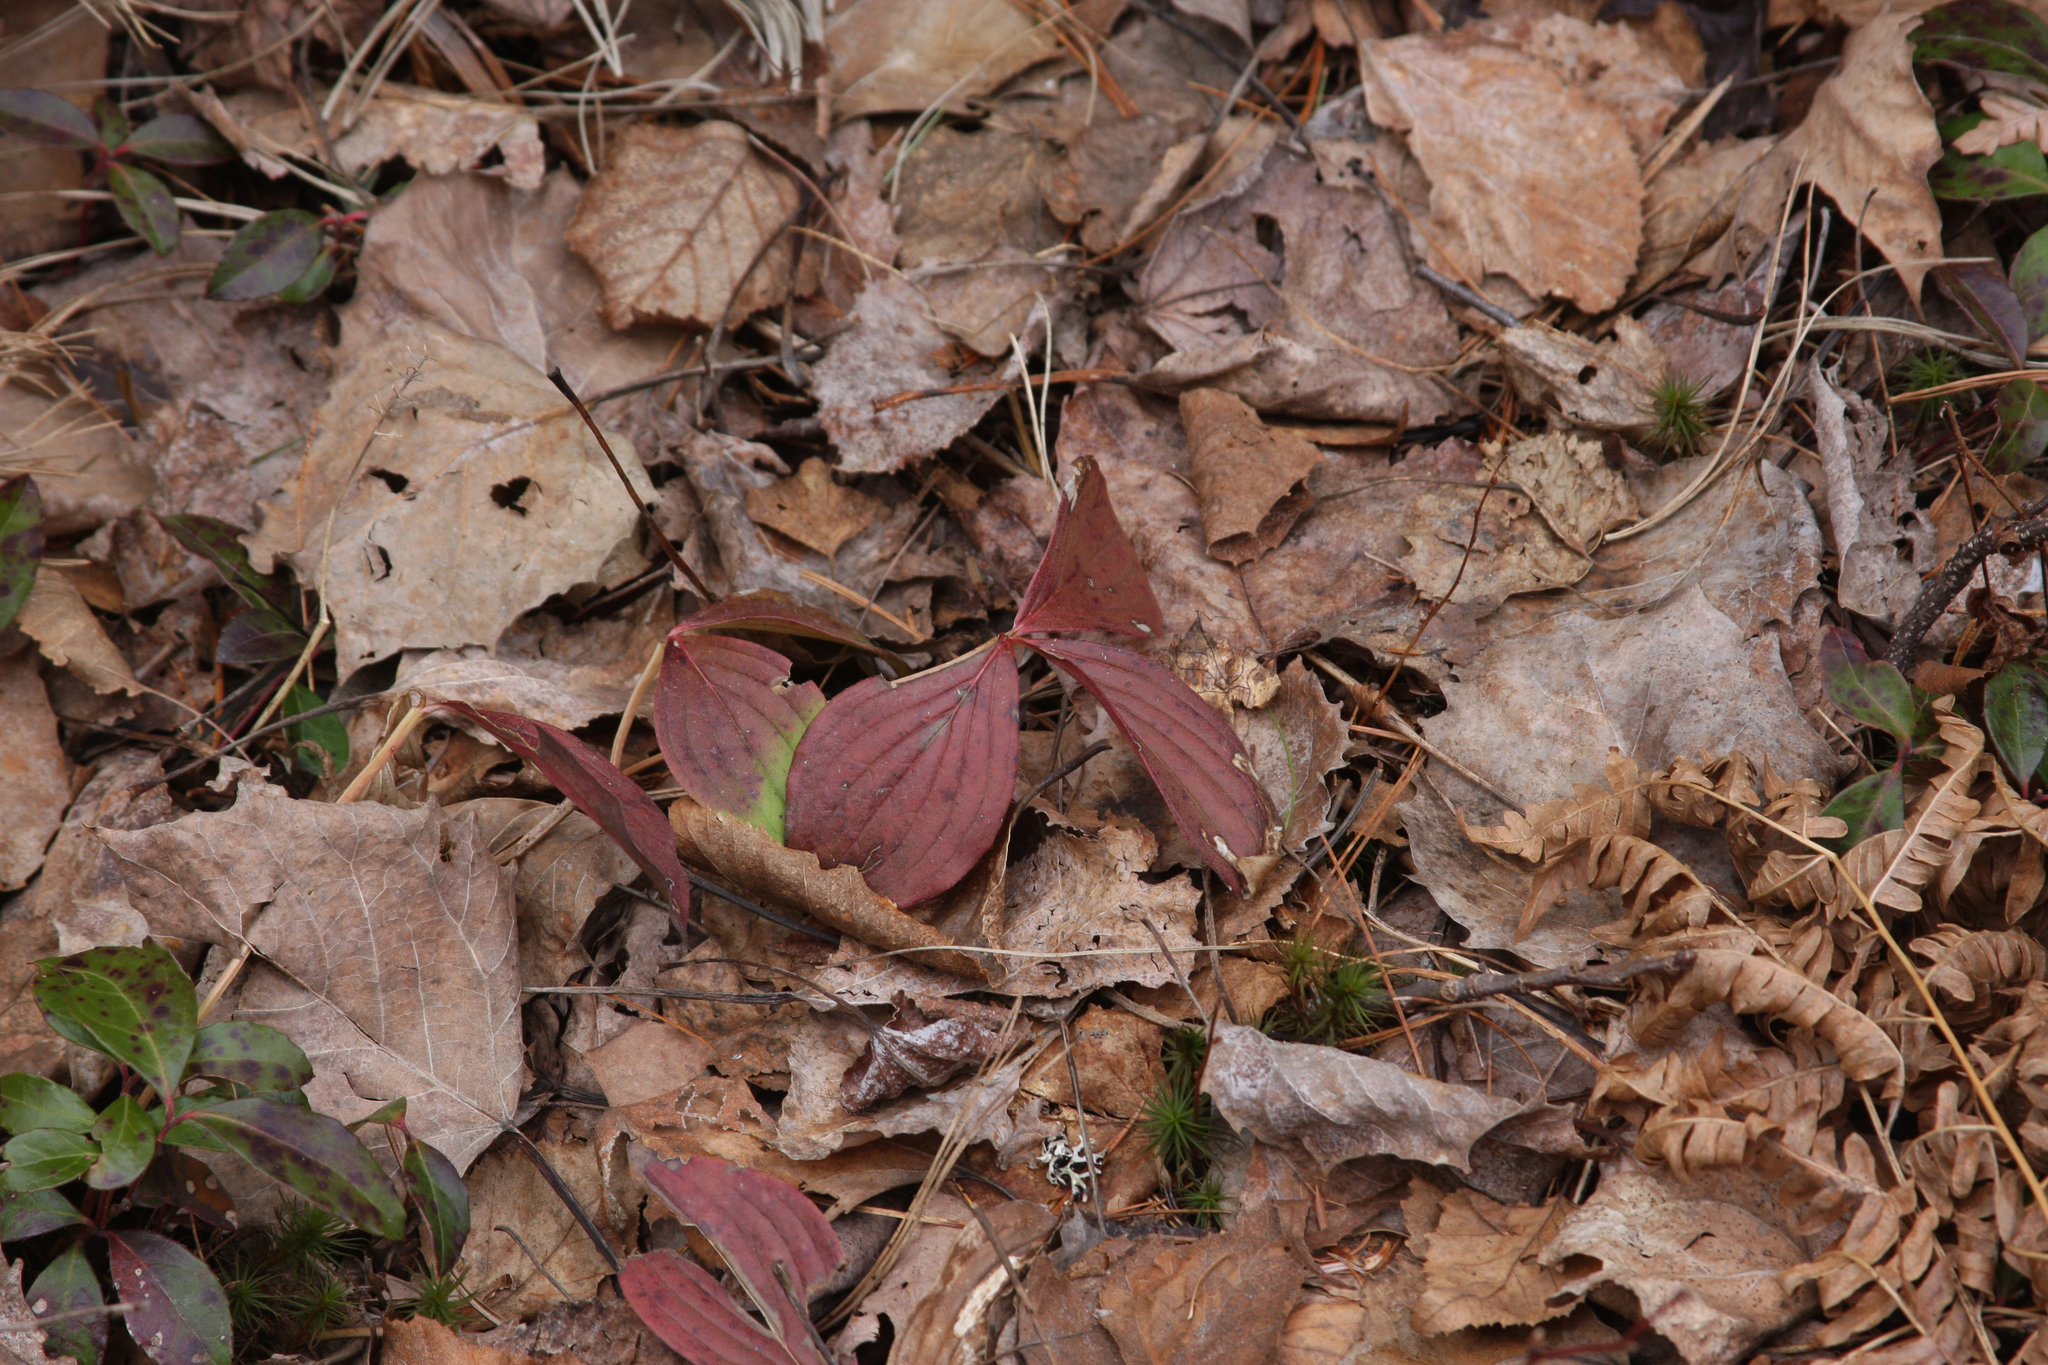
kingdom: Plantae
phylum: Tracheophyta
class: Magnoliopsida
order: Cornales
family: Cornaceae
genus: Cornus
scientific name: Cornus canadensis
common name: Creeping dogwood
